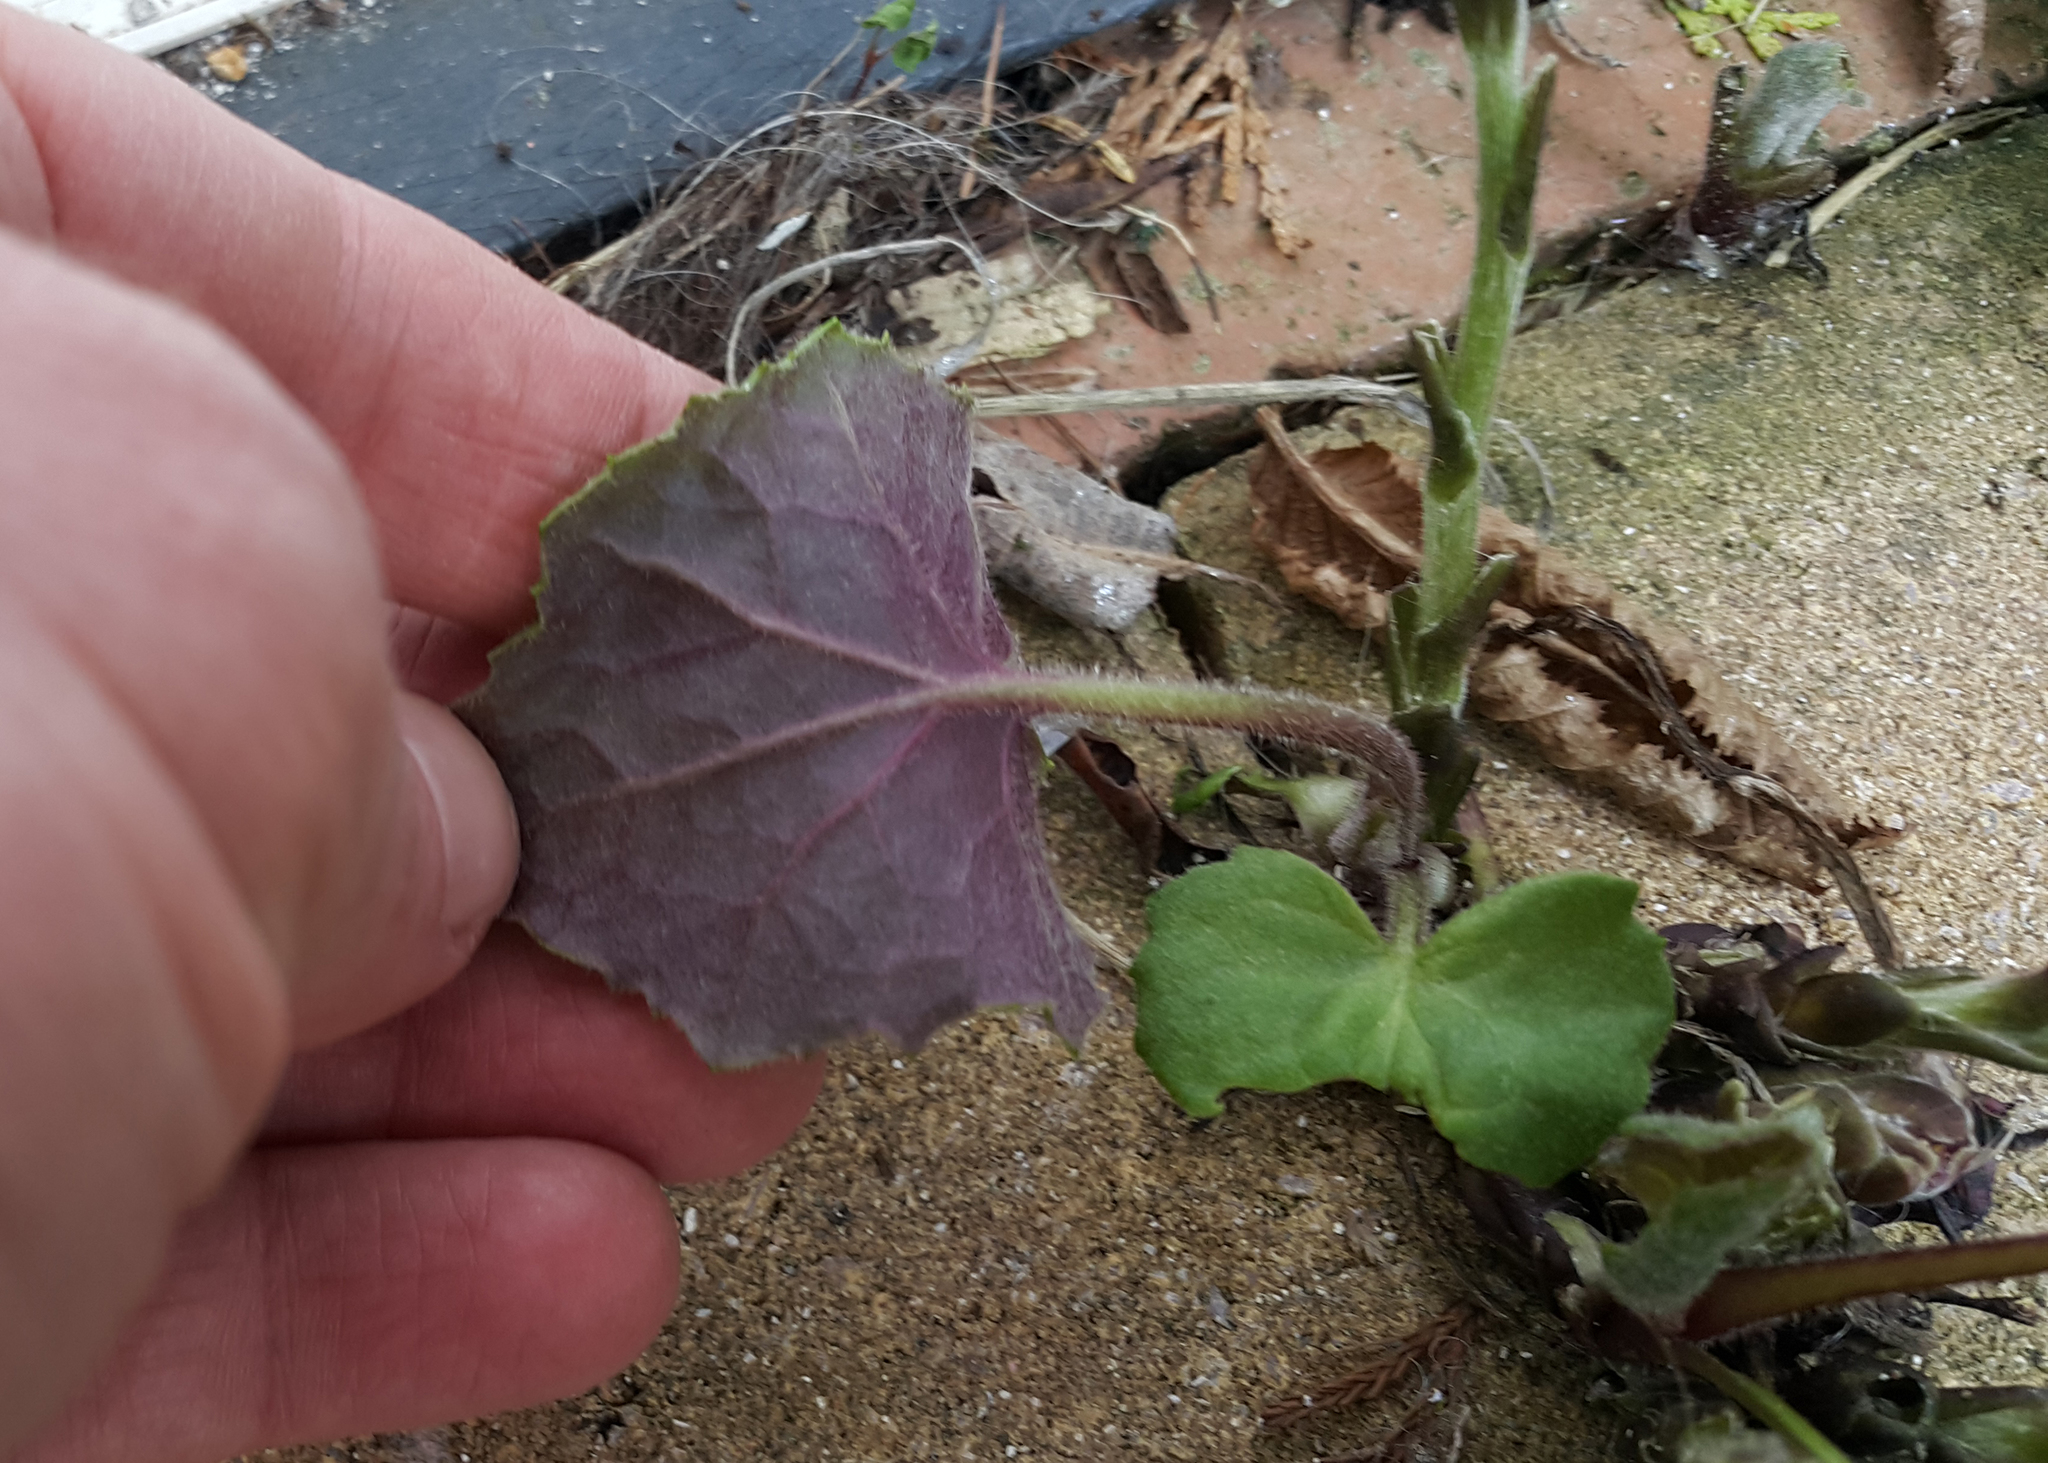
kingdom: Plantae
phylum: Tracheophyta
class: Magnoliopsida
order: Asterales
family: Asteraceae
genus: Tussilago
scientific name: Tussilago farfara
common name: Coltsfoot
